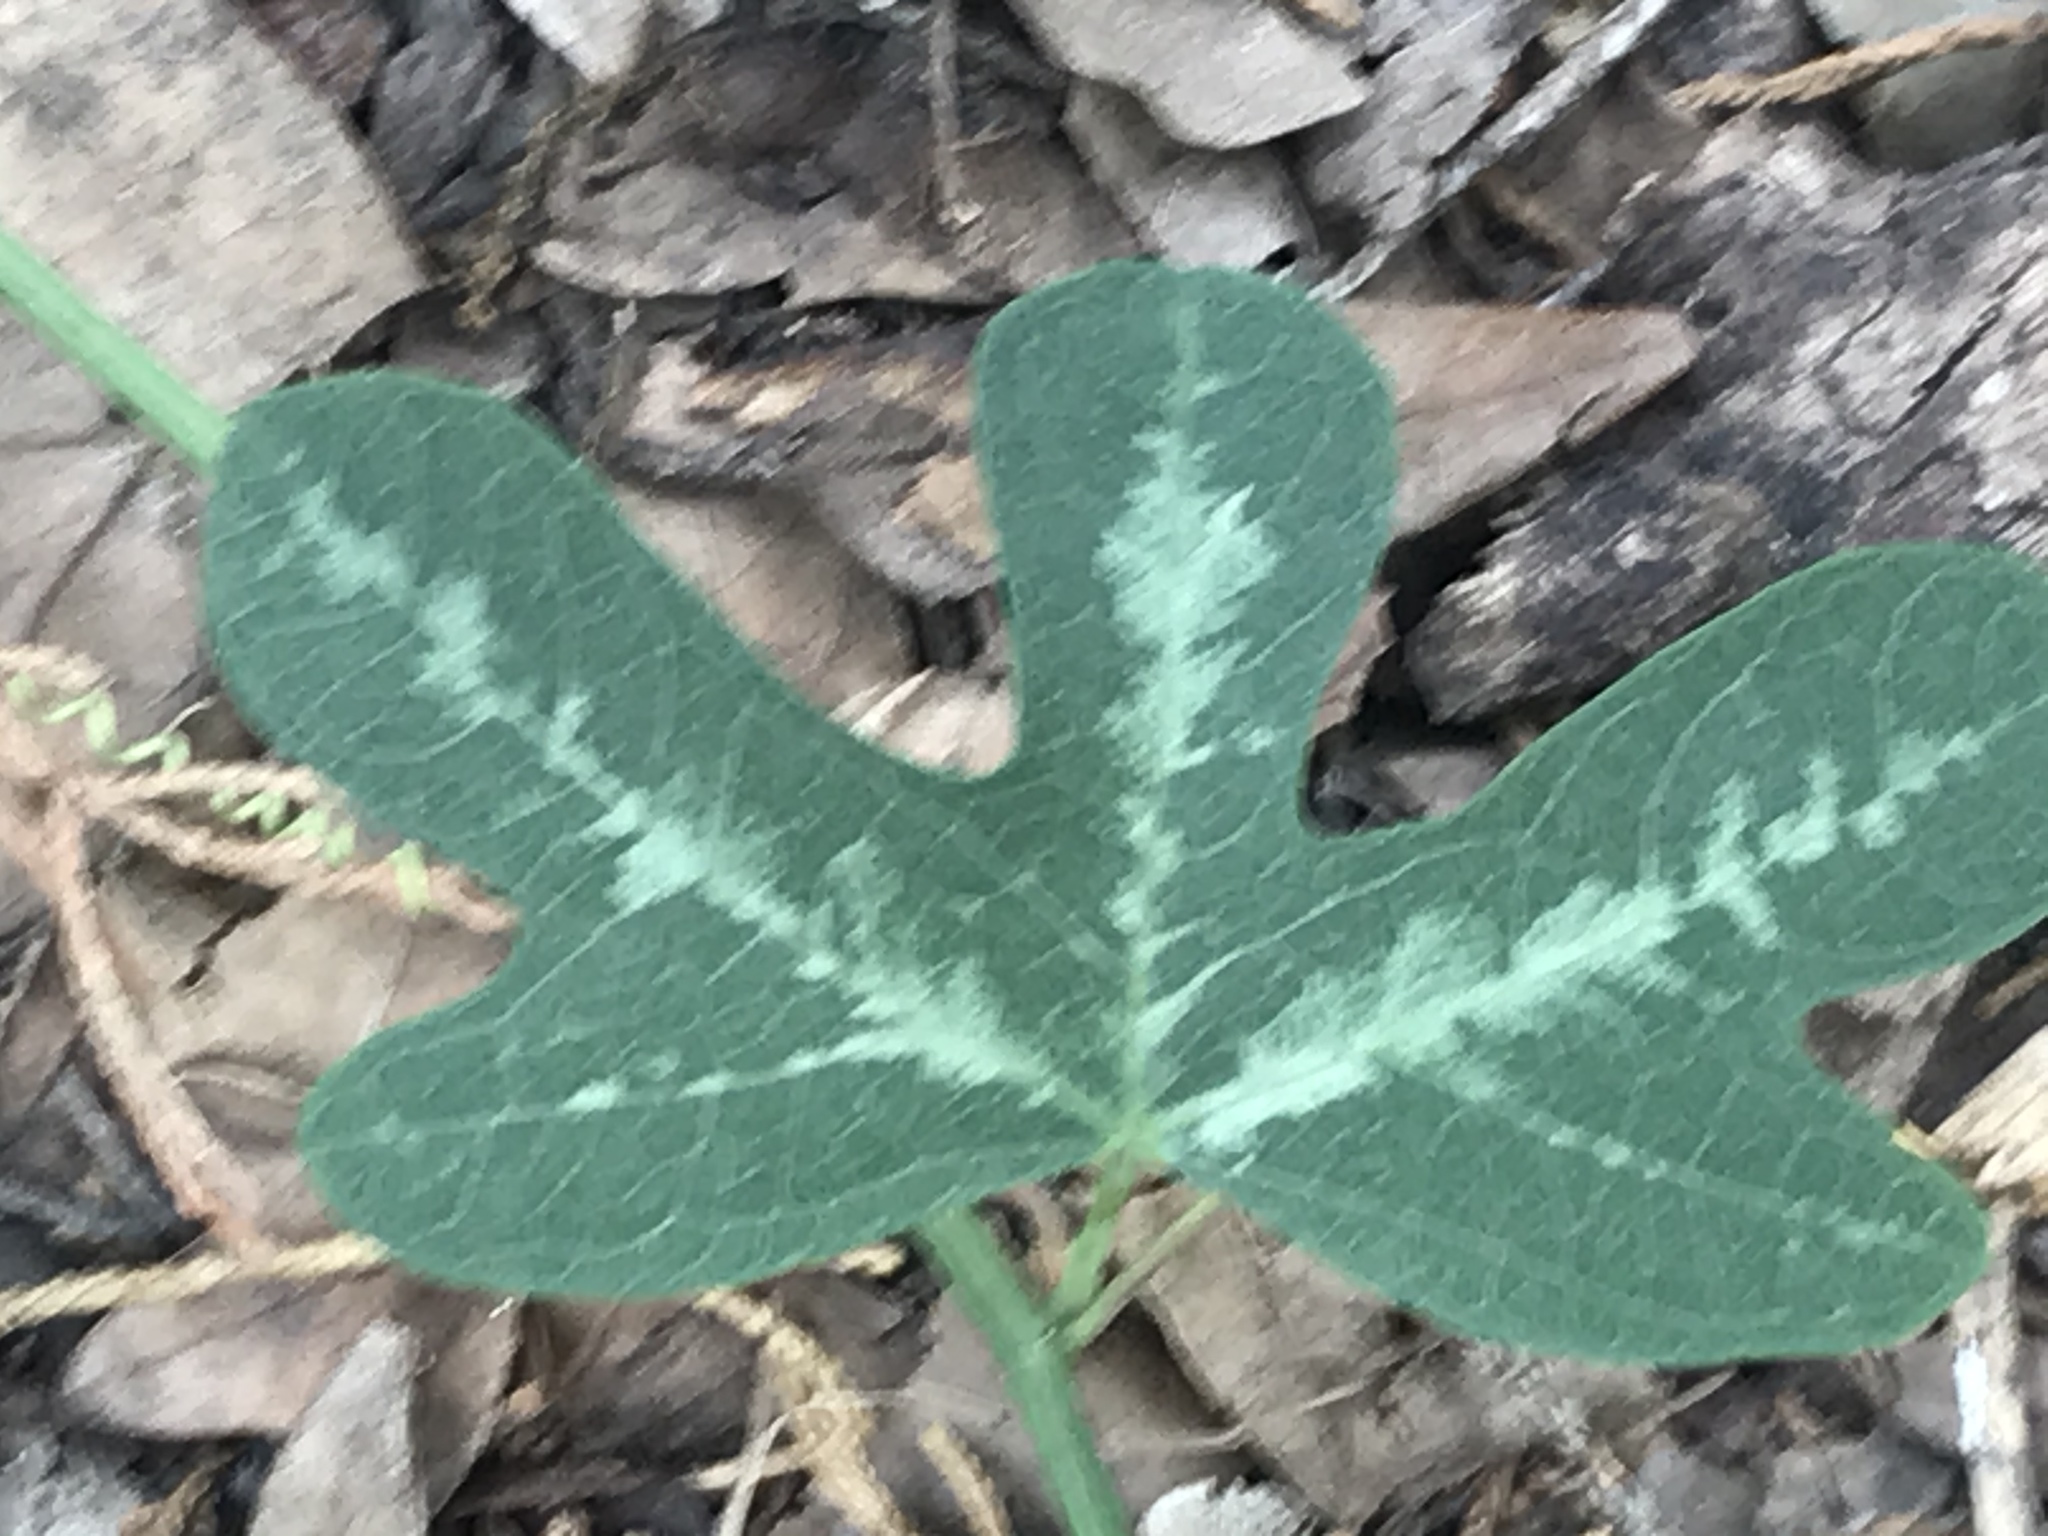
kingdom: Plantae
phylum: Tracheophyta
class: Magnoliopsida
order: Malpighiales
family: Passifloraceae
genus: Passiflora
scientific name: Passiflora affinis
